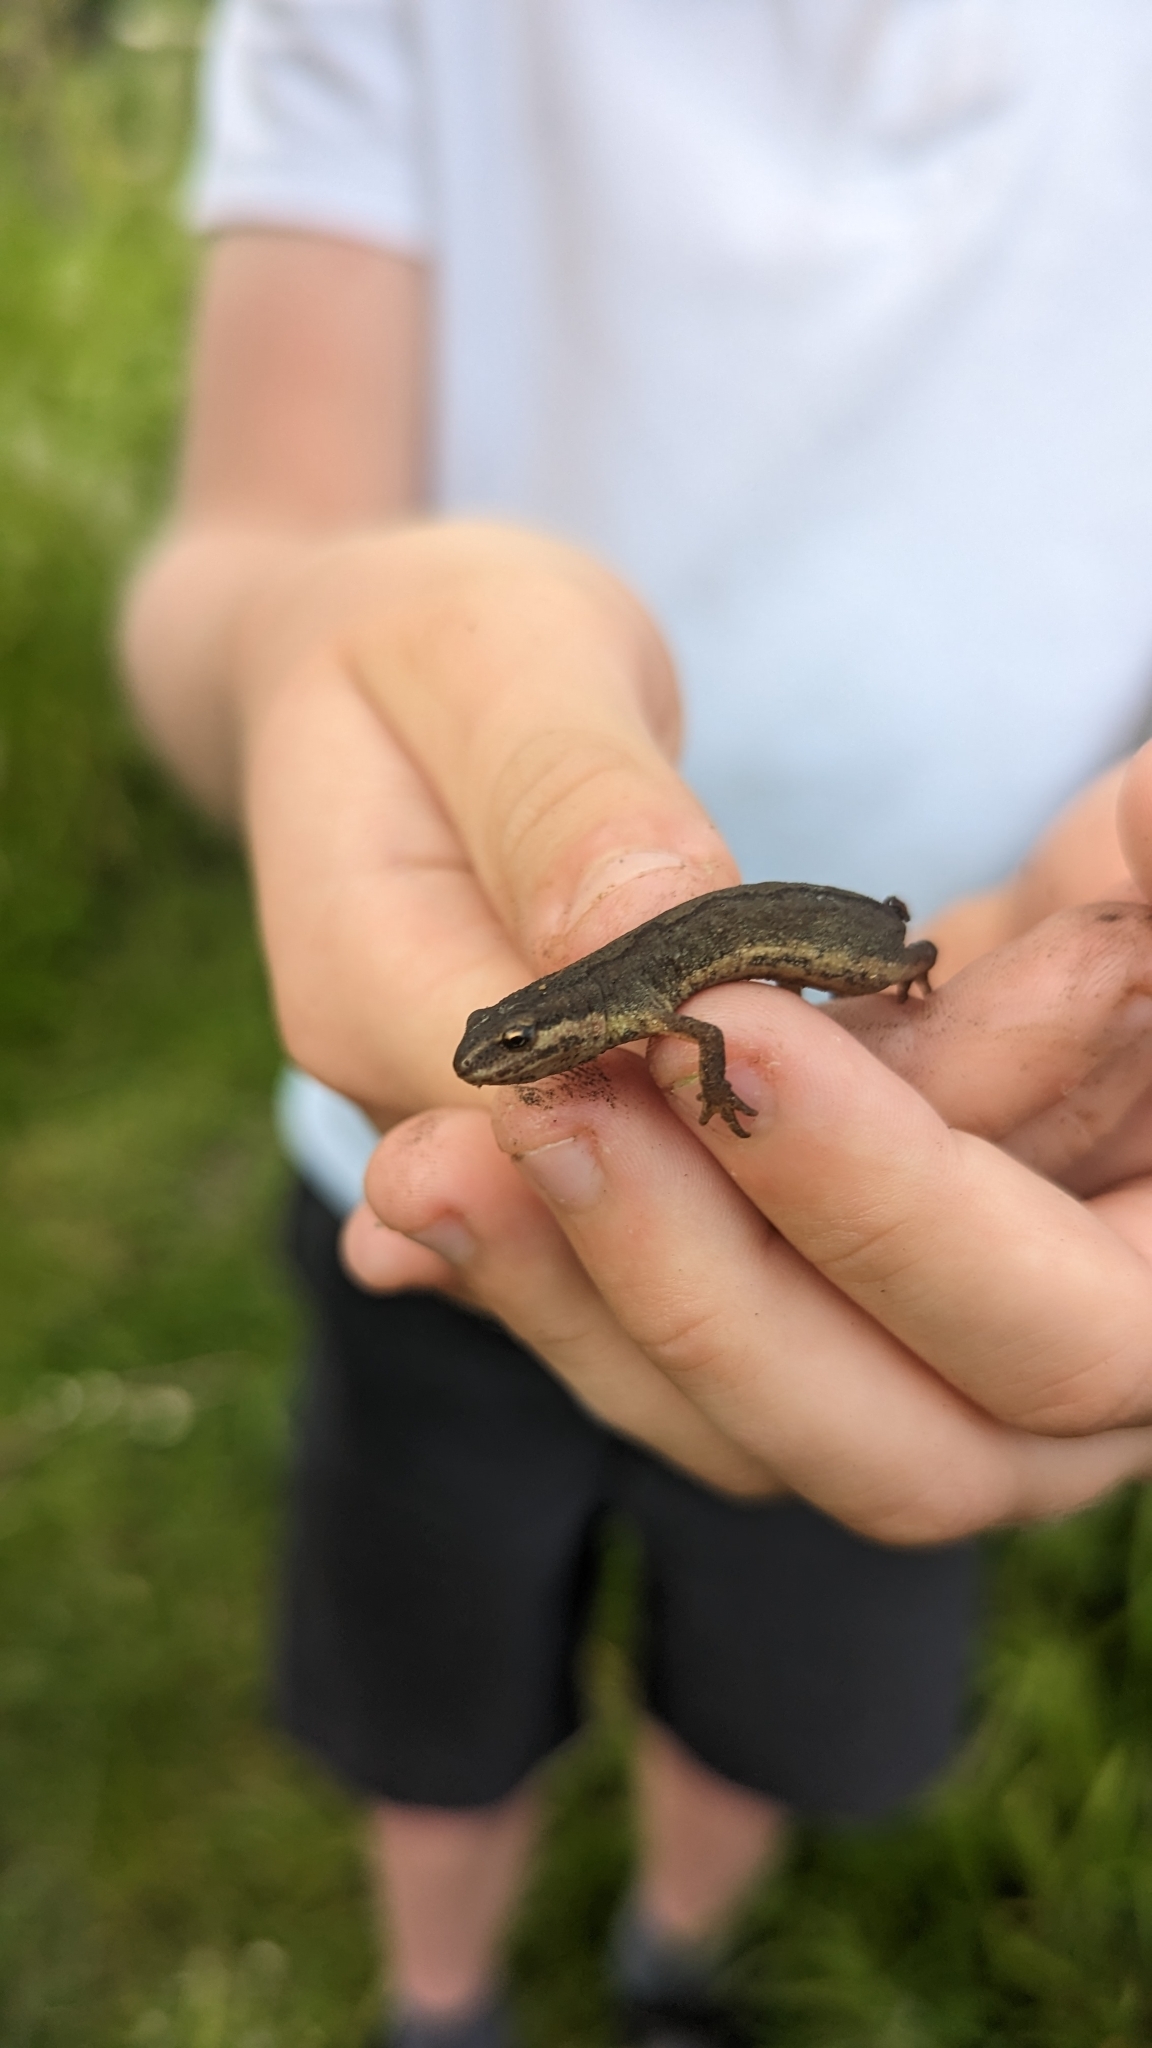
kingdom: Animalia
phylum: Chordata
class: Amphibia
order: Caudata
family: Salamandridae
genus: Lissotriton
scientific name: Lissotriton vulgaris
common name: Smooth newt
